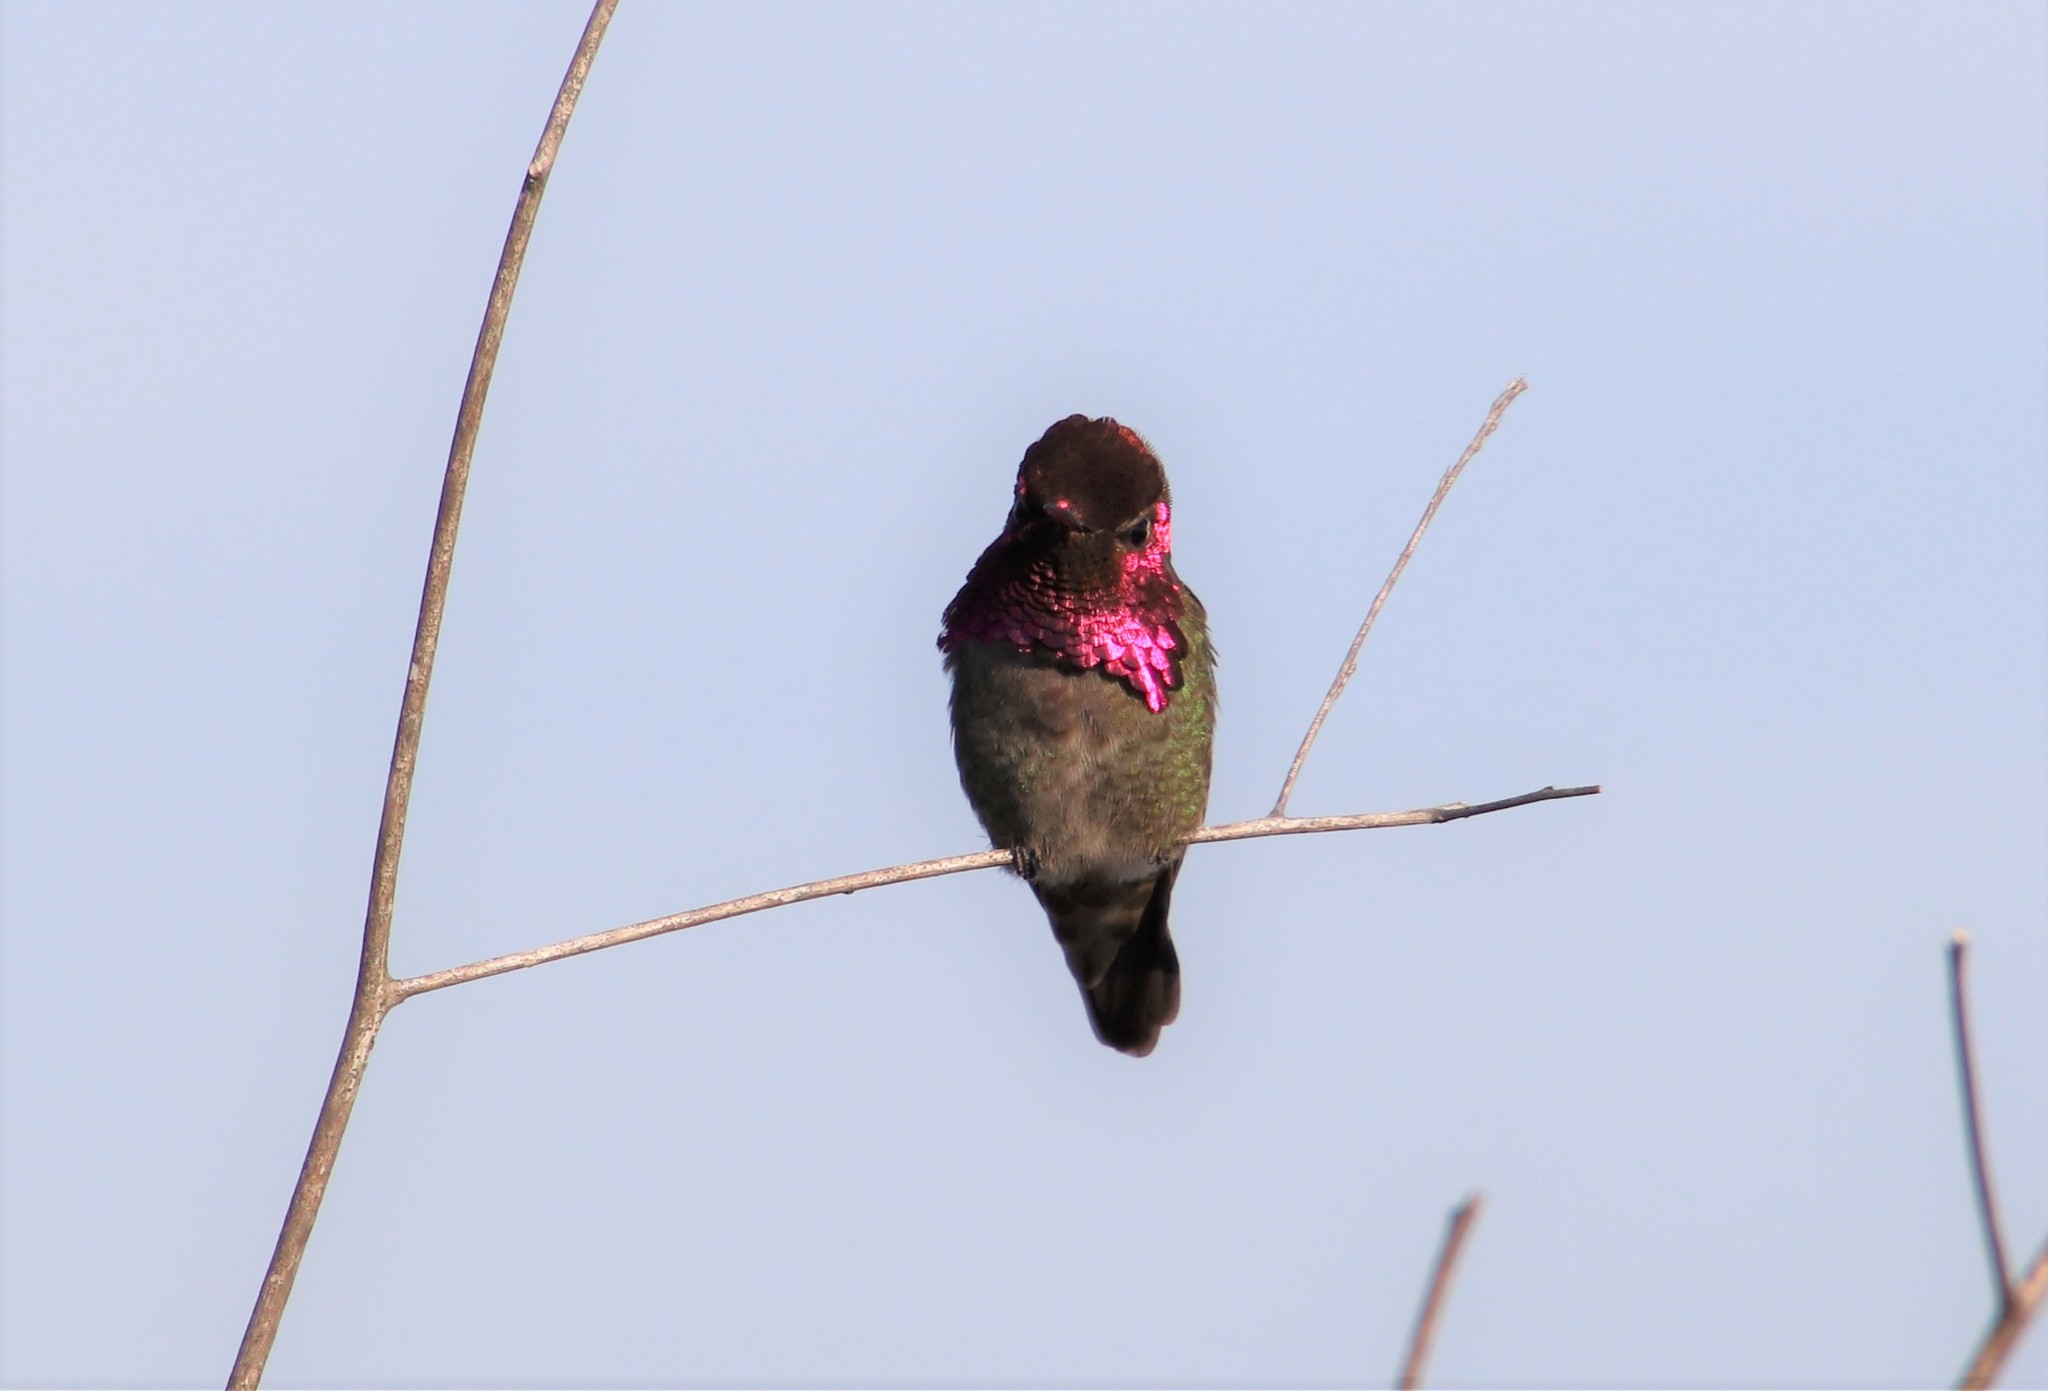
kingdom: Animalia
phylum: Chordata
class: Aves
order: Apodiformes
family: Trochilidae
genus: Calypte
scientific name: Calypte anna
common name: Anna's hummingbird
